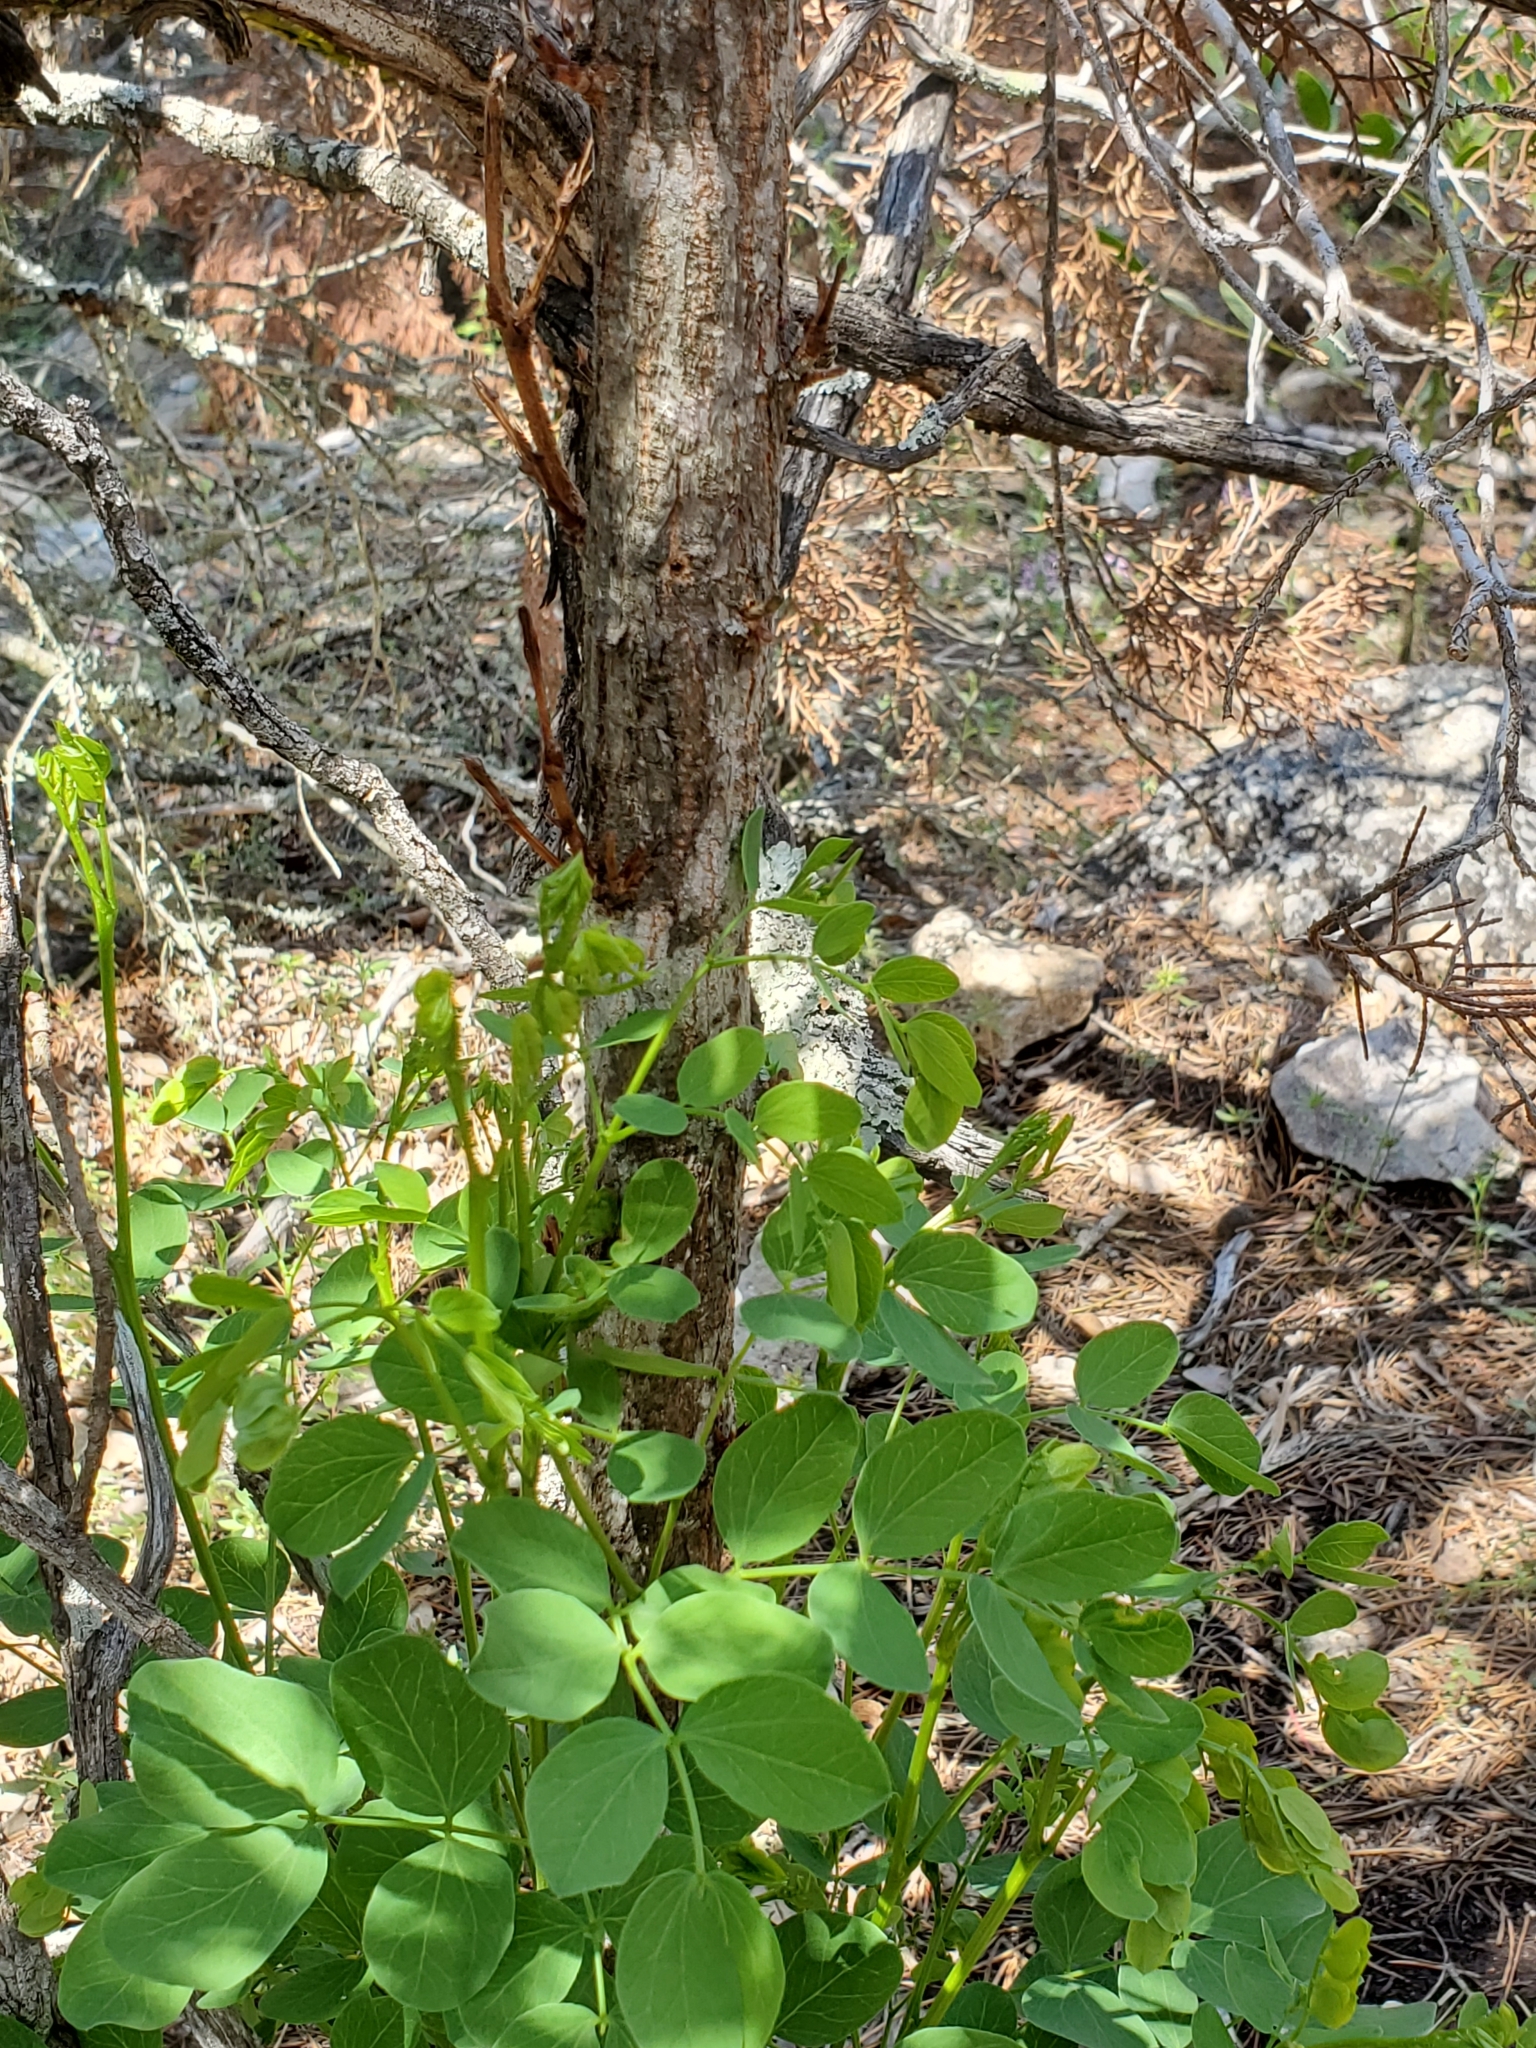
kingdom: Plantae
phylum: Tracheophyta
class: Magnoliopsida
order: Fabales
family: Fabaceae
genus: Leucaena
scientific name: Leucaena retusa
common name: Littleleaf leadtree
